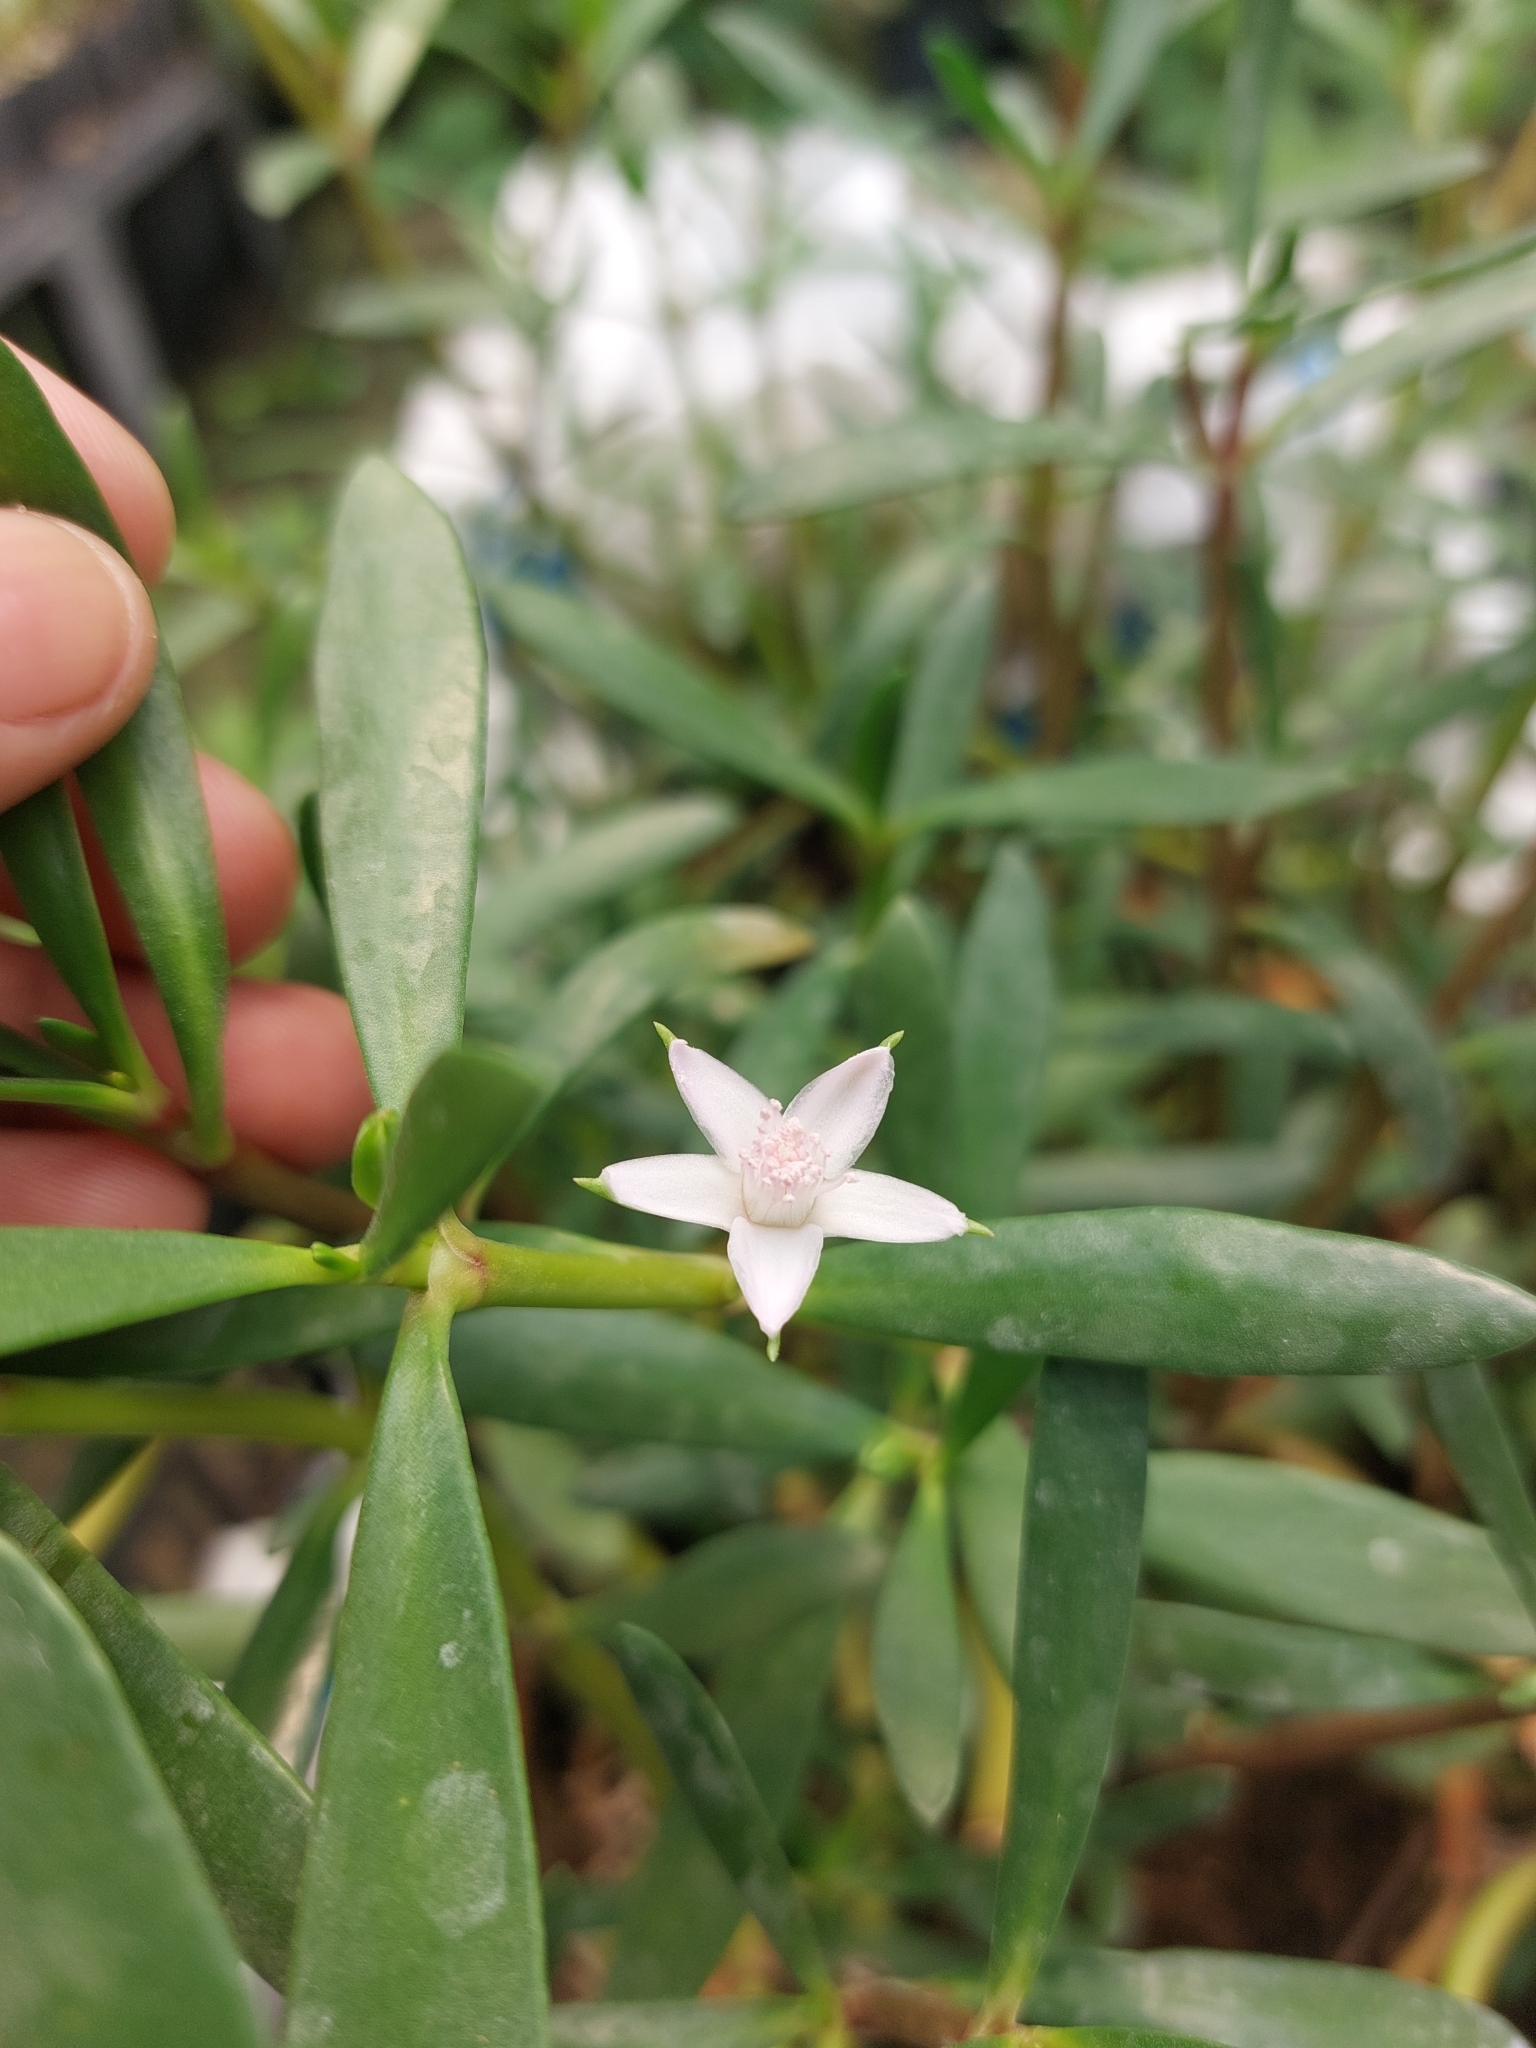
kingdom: Plantae
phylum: Tracheophyta
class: Magnoliopsida
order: Caryophyllales
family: Aizoaceae
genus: Sesuvium
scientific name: Sesuvium portulacastrum
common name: Sea-purslane
